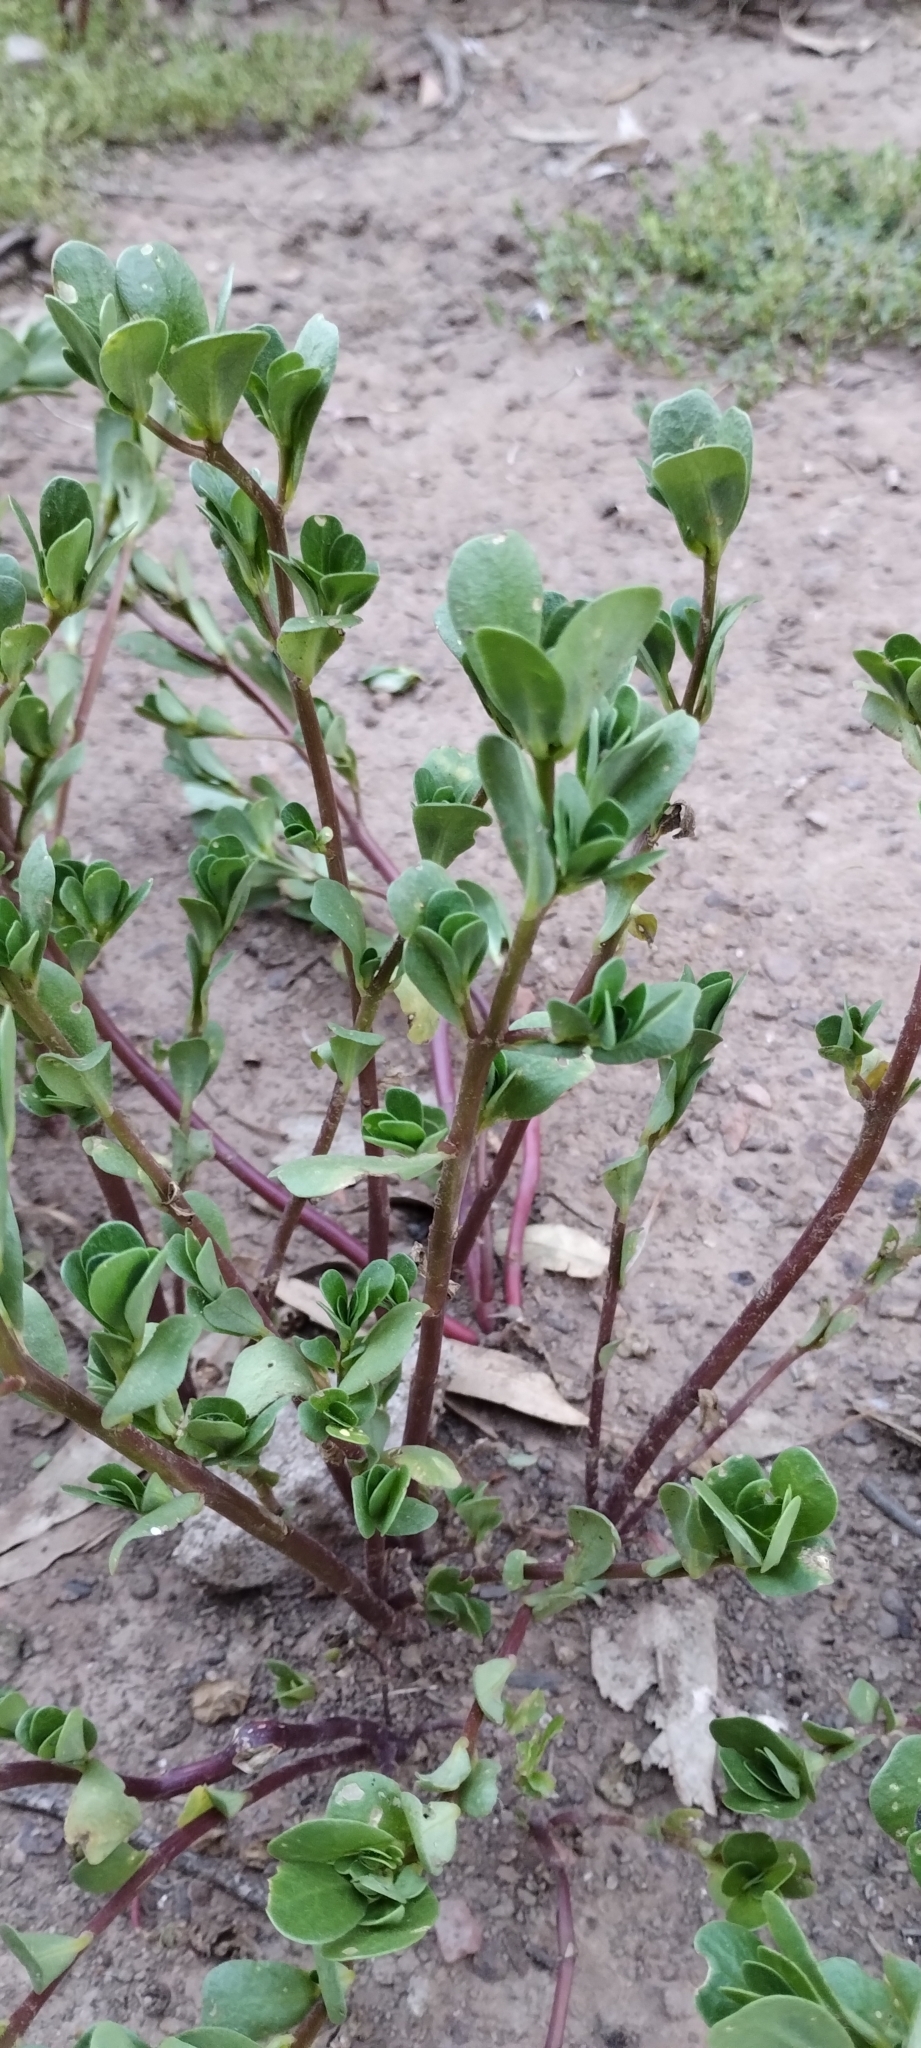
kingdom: Plantae
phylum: Tracheophyta
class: Magnoliopsida
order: Caryophyllales
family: Portulacaceae
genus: Portulaca
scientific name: Portulaca oleracea
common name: Common purslane
